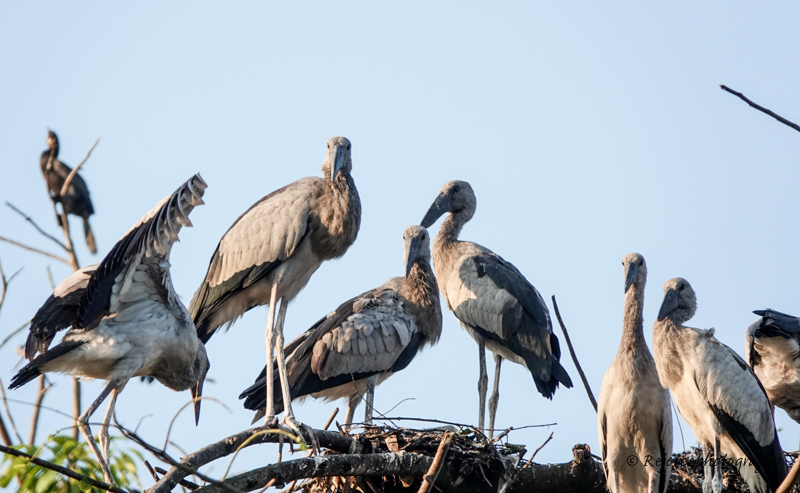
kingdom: Animalia
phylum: Chordata
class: Aves
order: Ciconiiformes
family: Ciconiidae
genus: Anastomus
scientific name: Anastomus oscitans
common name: Asian openbill
